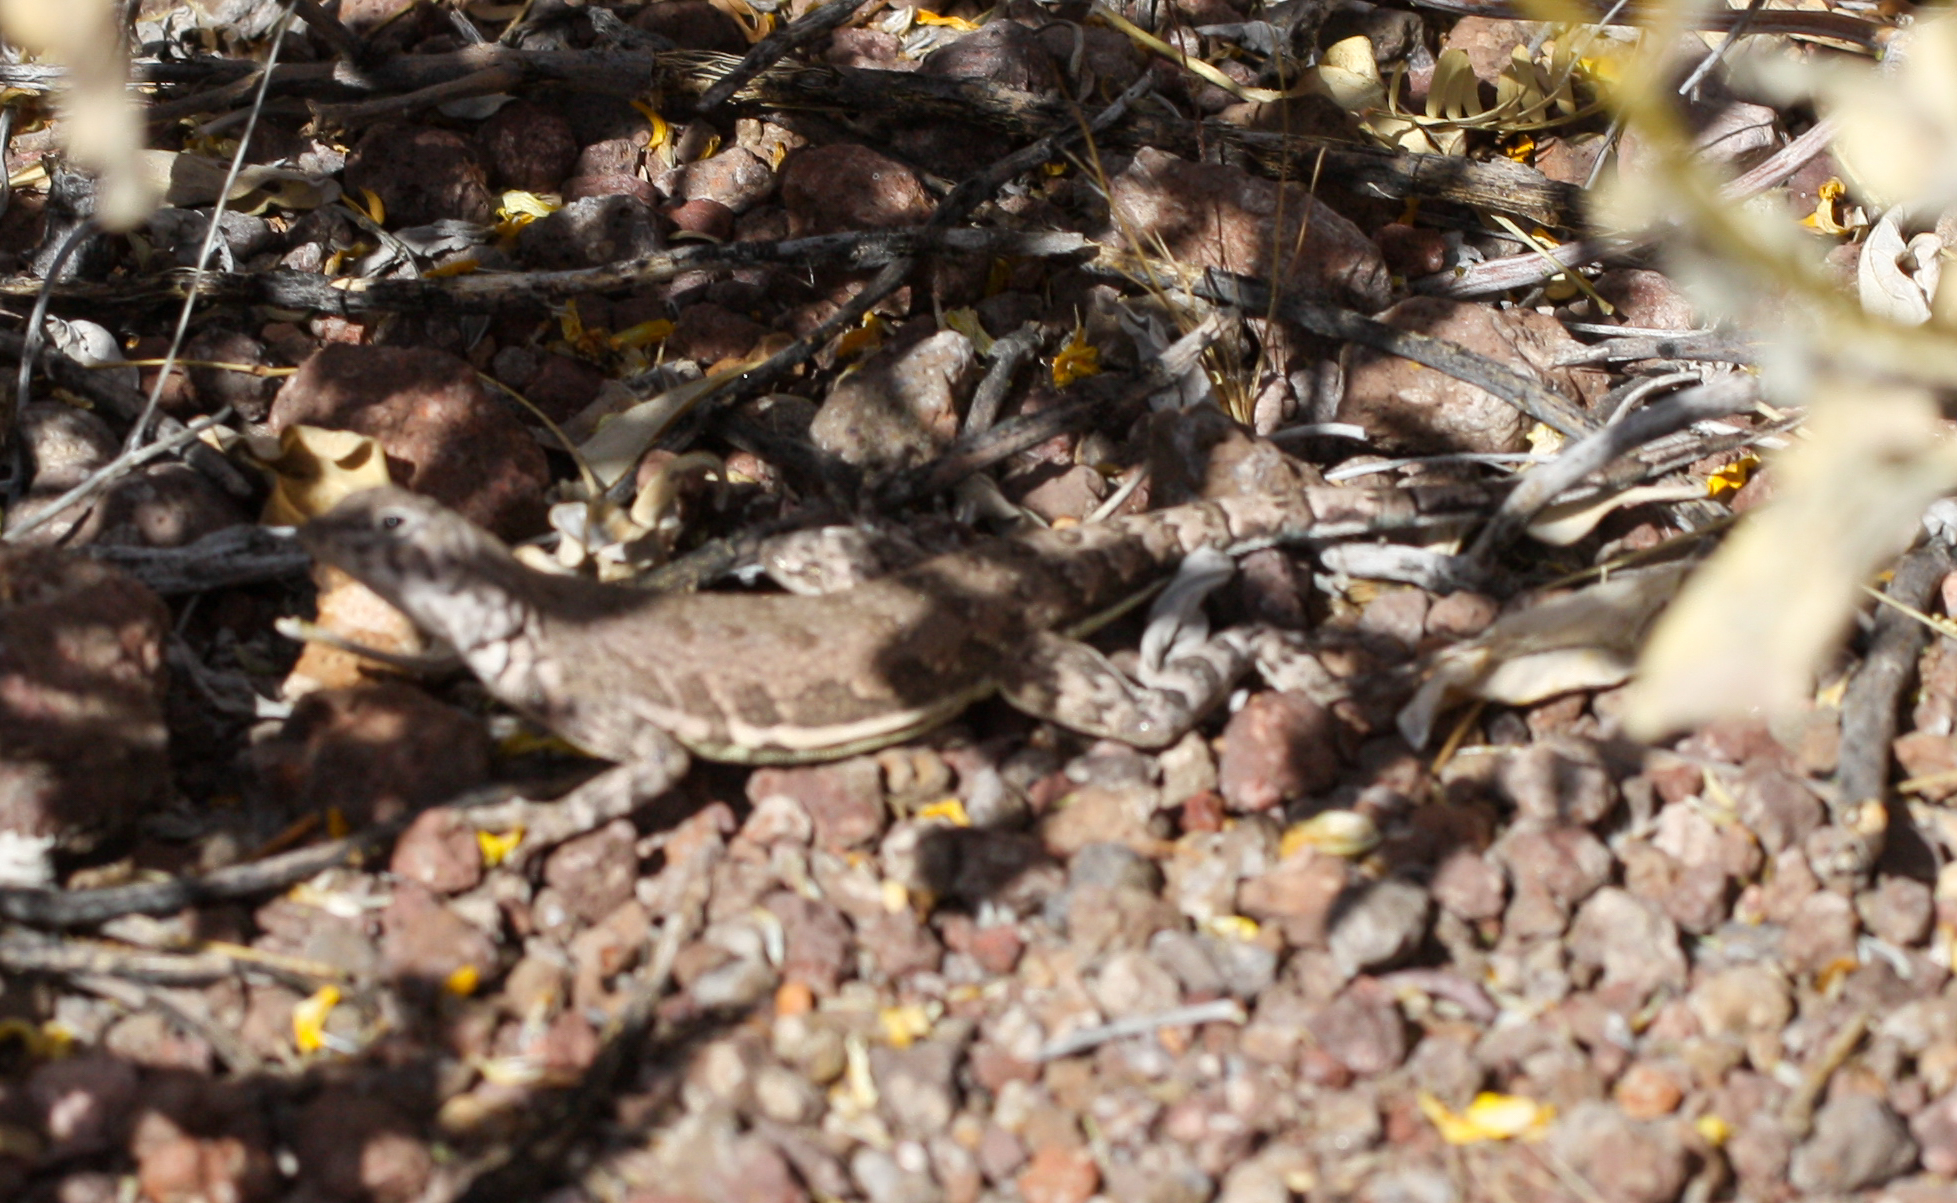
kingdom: Animalia
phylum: Chordata
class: Squamata
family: Phrynosomatidae
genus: Callisaurus
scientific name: Callisaurus draconoides
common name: Zebra-tailed lizard
